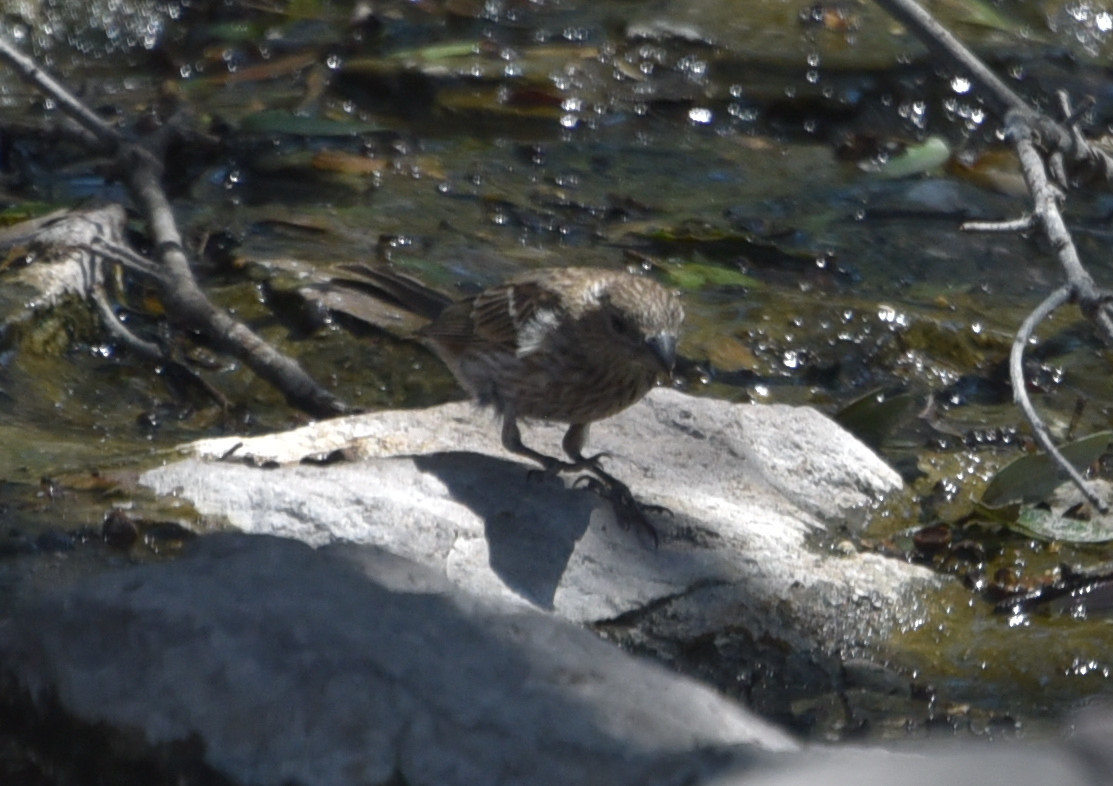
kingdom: Animalia
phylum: Chordata
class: Aves
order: Passeriformes
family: Fringillidae
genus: Haemorhous
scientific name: Haemorhous mexicanus
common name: House finch
